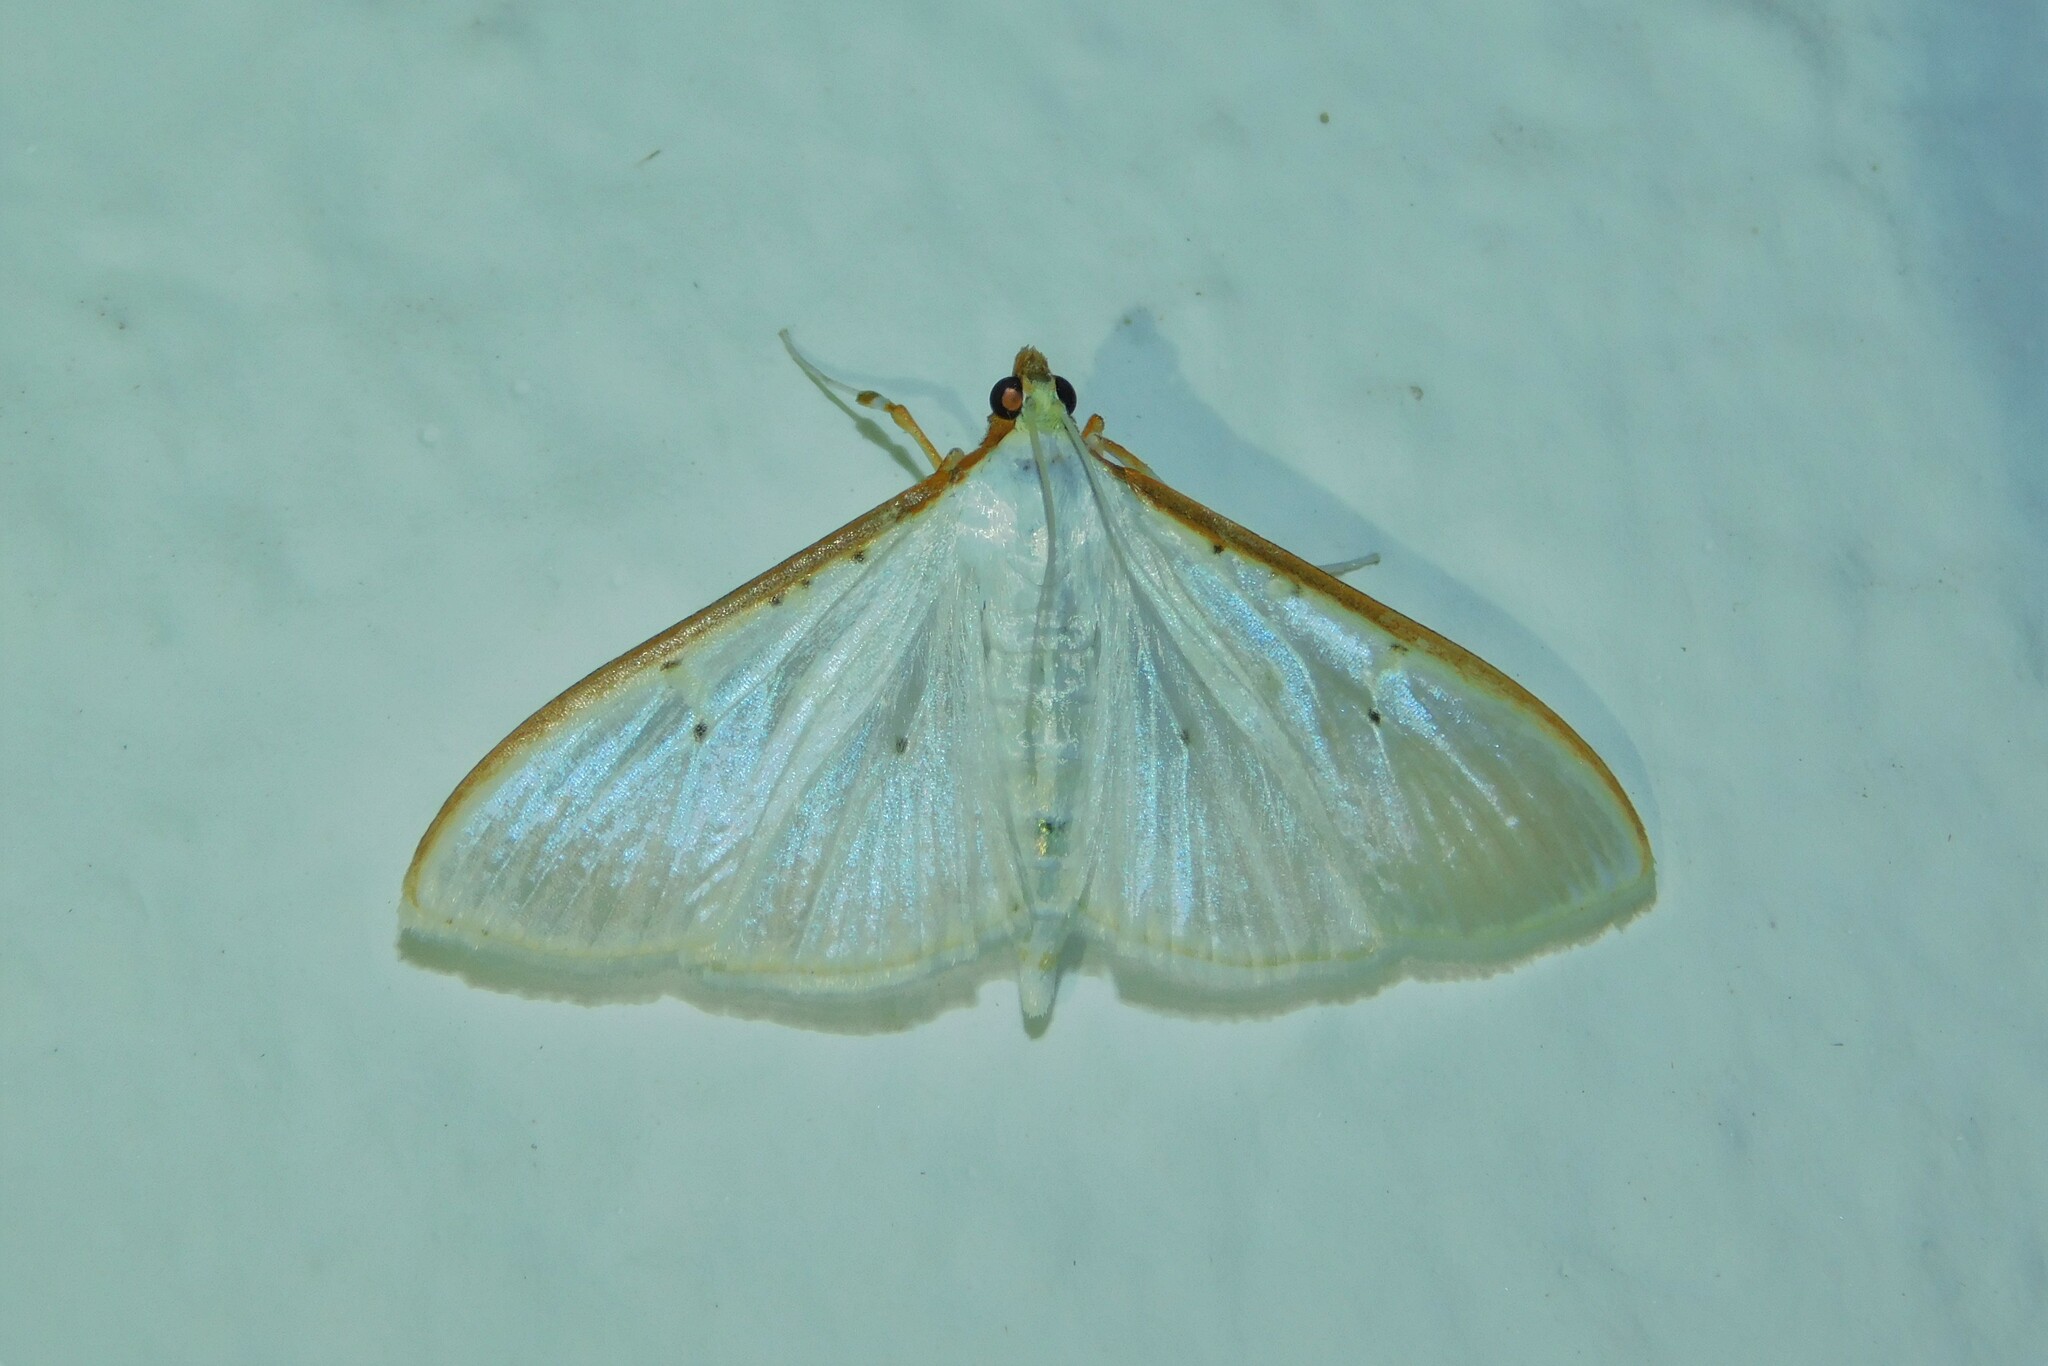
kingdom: Animalia
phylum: Arthropoda
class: Insecta
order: Lepidoptera
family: Crambidae
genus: Palpita
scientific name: Palpita vitrealis
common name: Olive-tree pearl
